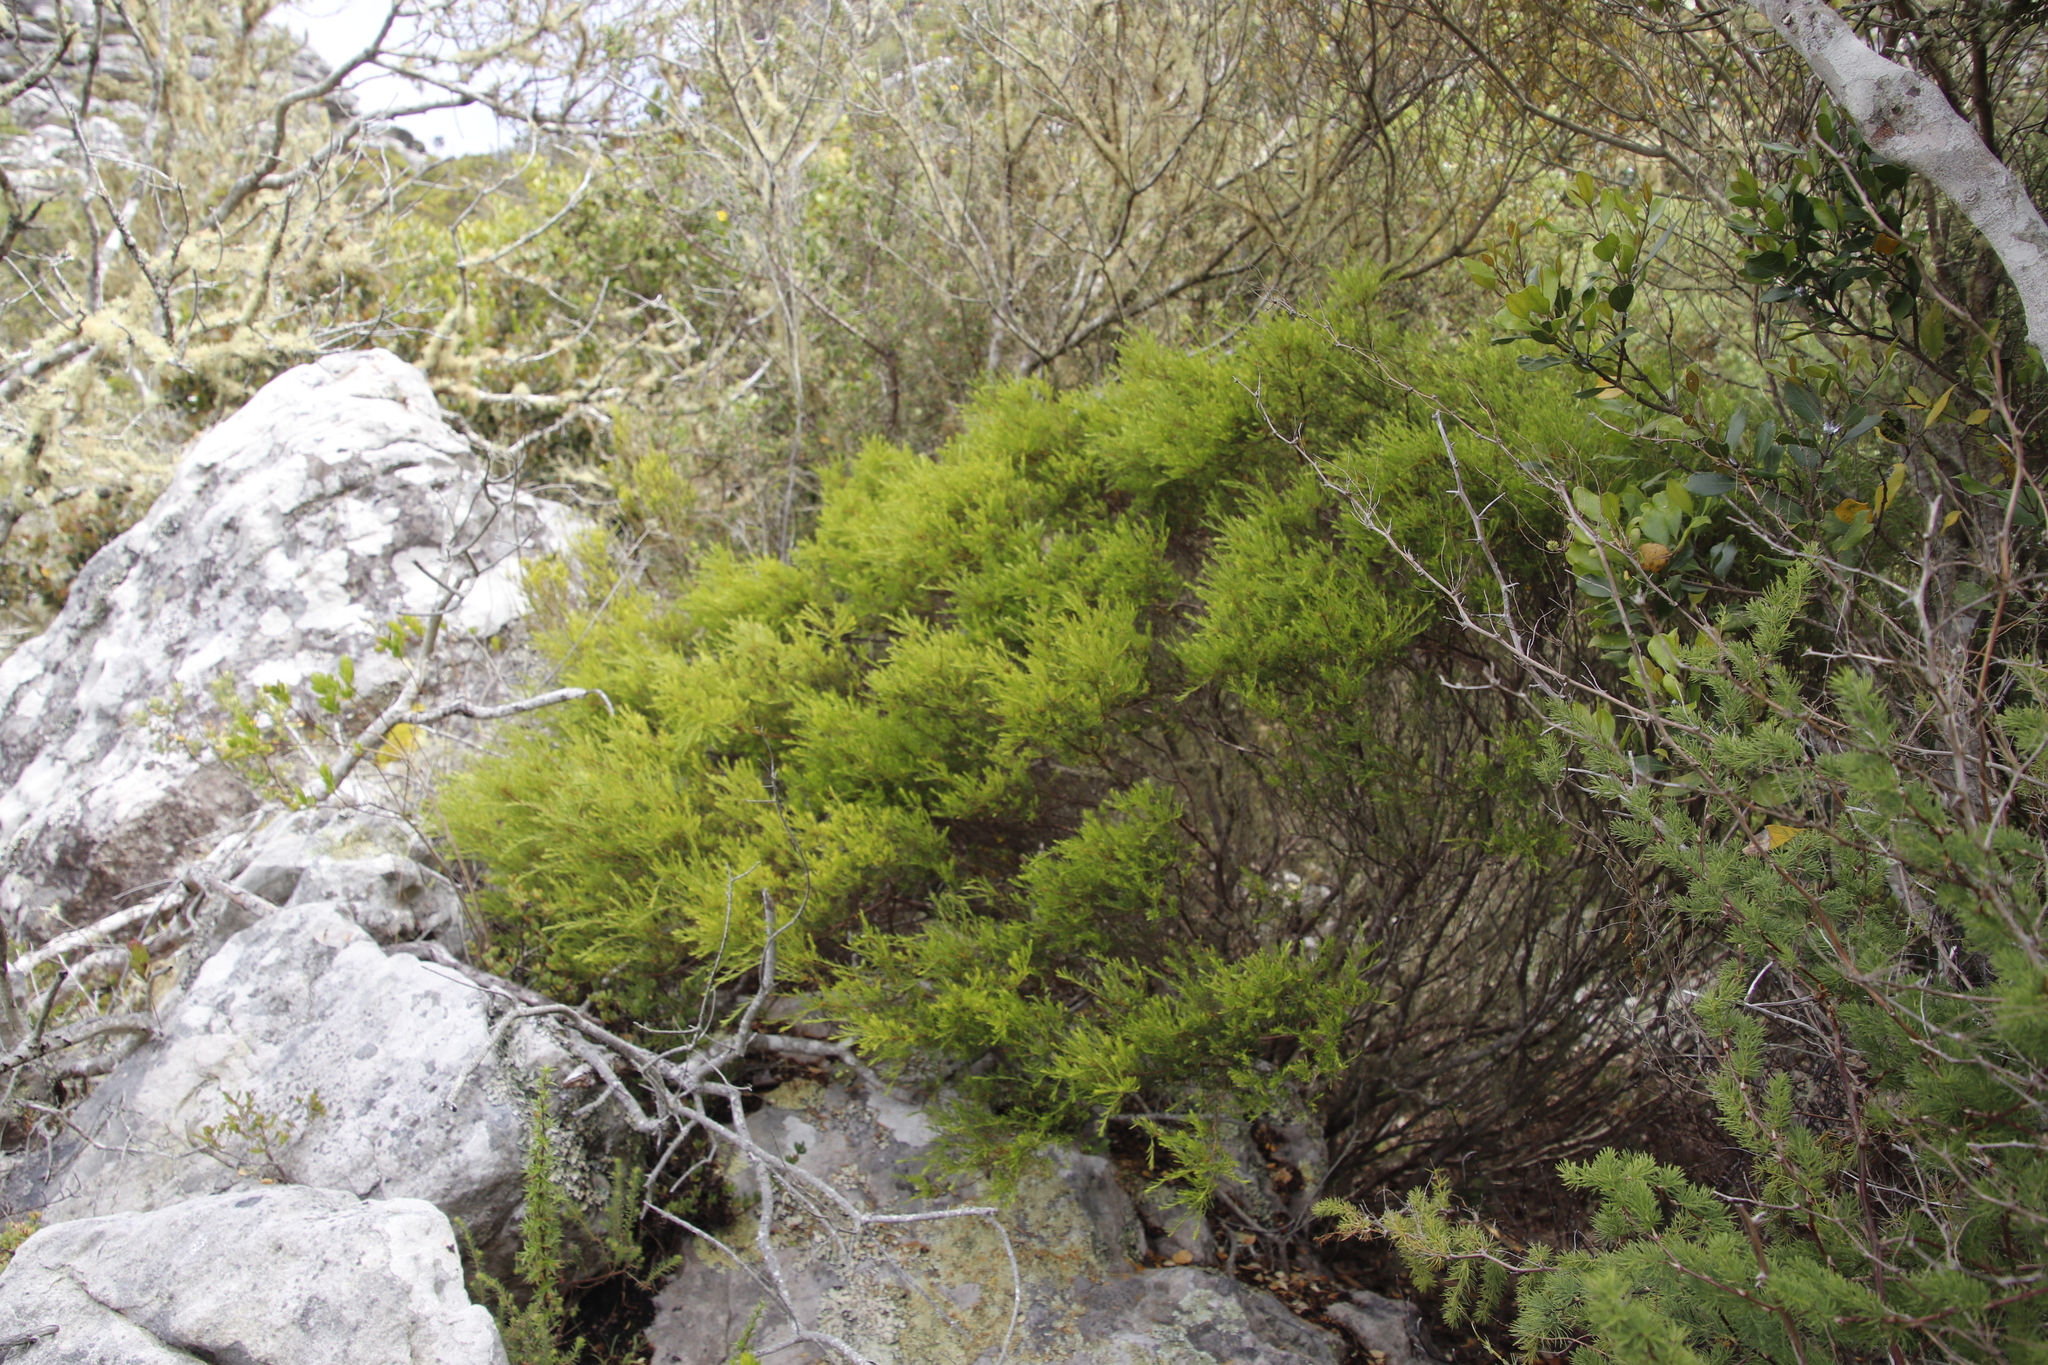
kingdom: Plantae
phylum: Tracheophyta
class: Magnoliopsida
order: Sapindales
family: Rutaceae
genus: Coleonema
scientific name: Coleonema album
